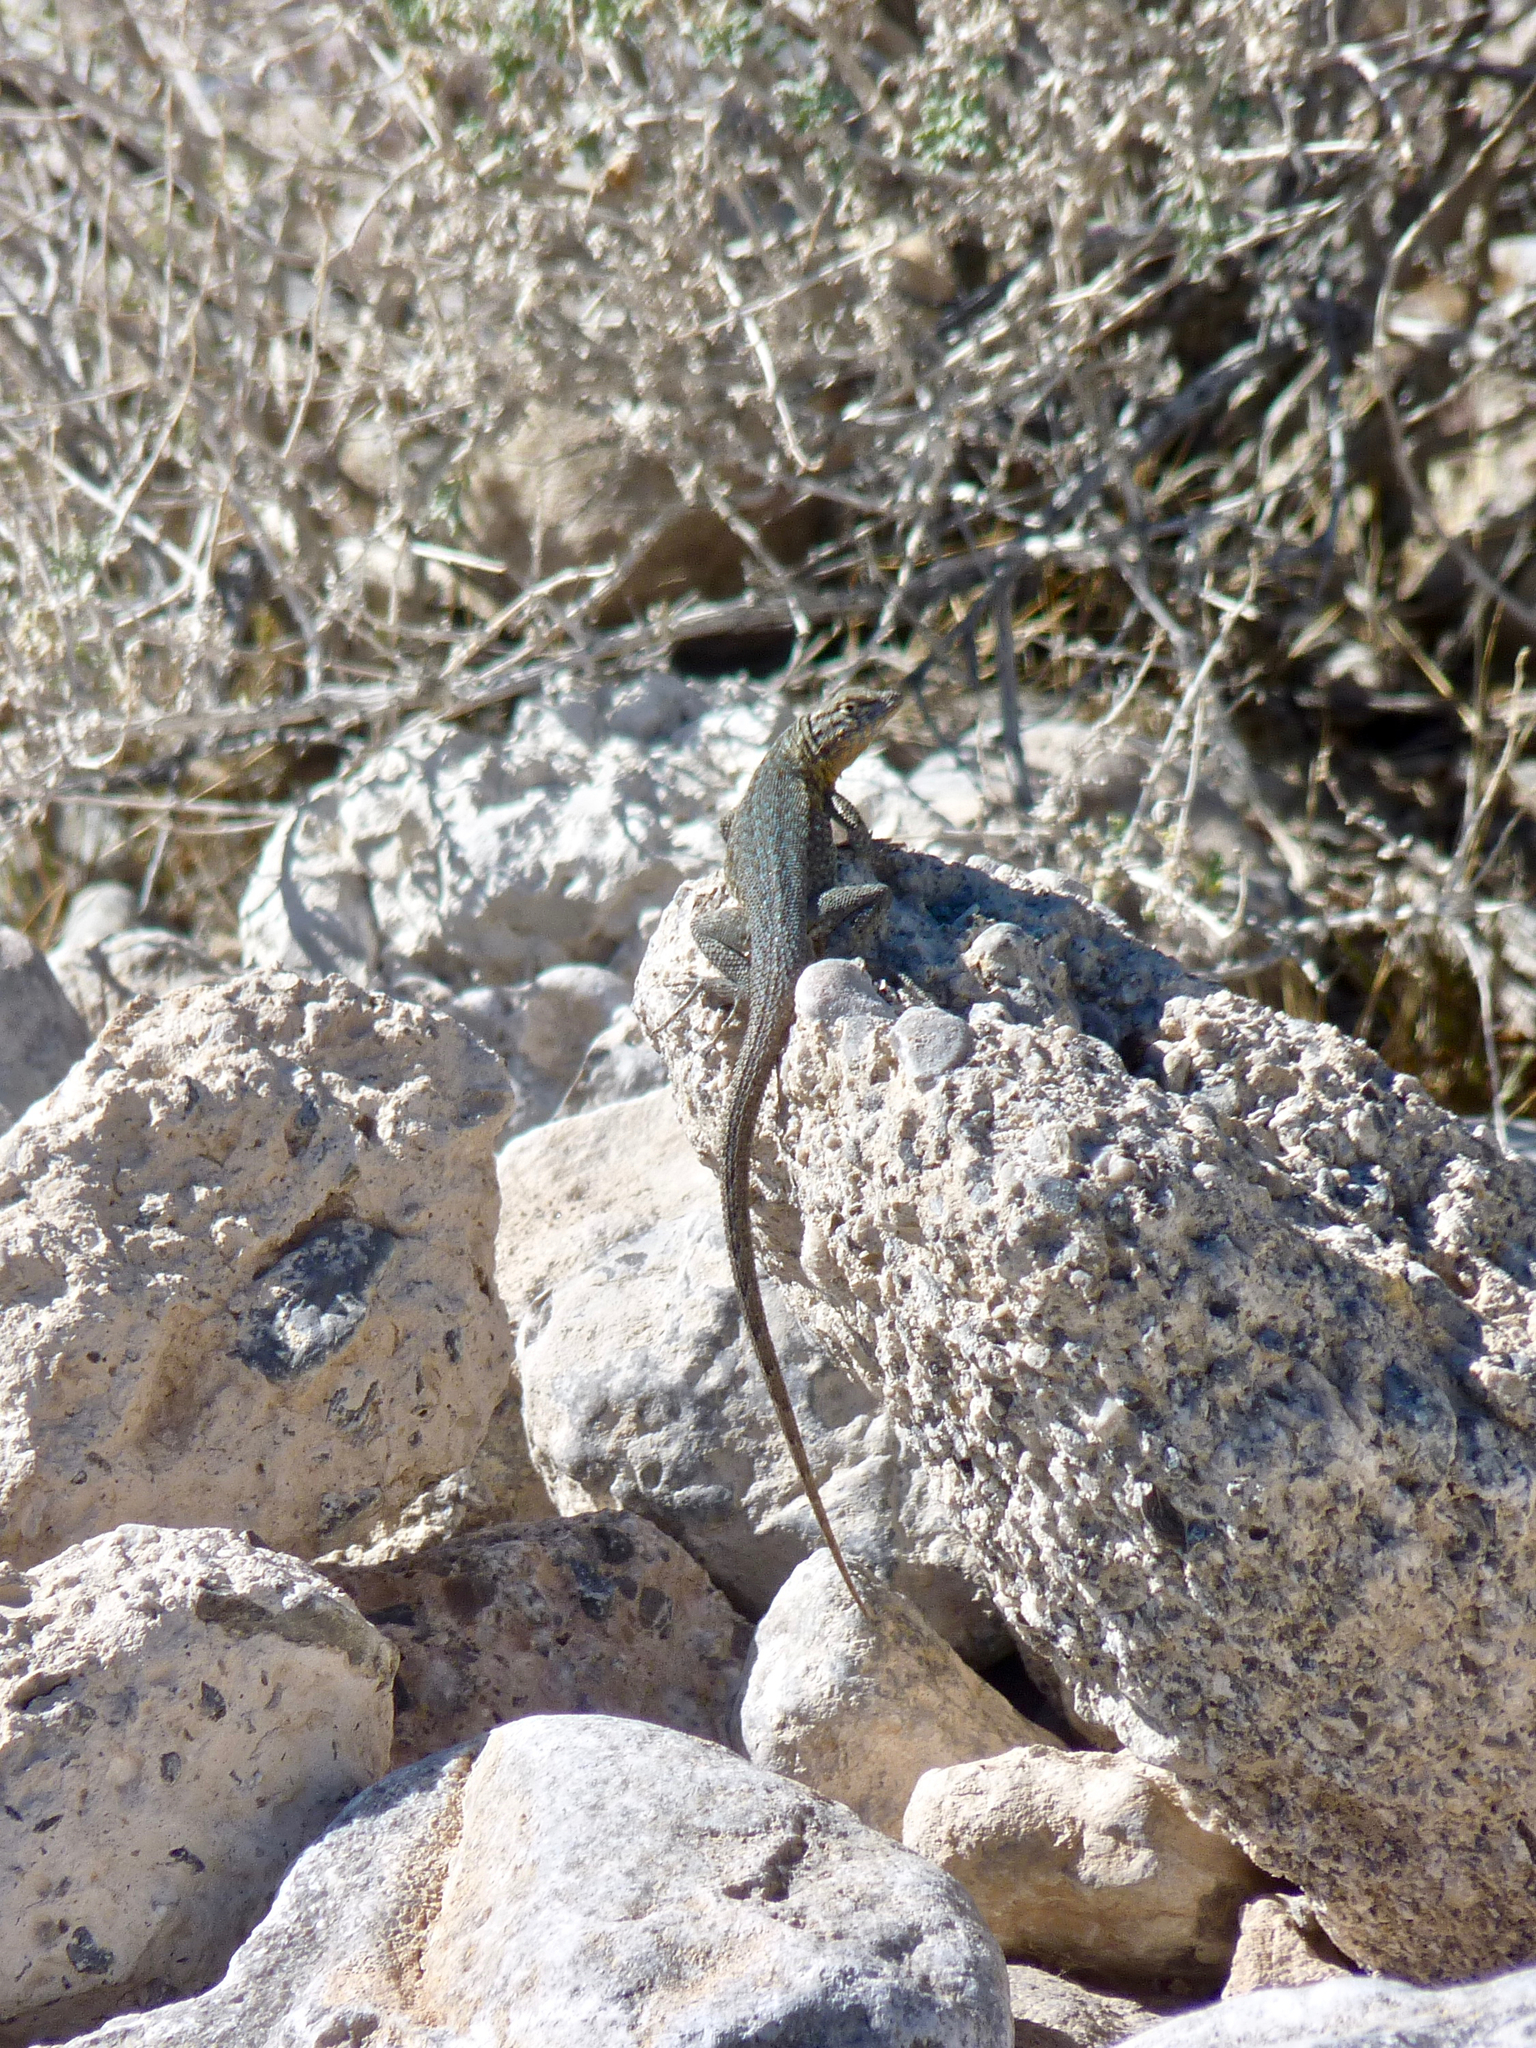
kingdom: Animalia
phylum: Chordata
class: Squamata
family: Phrynosomatidae
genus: Uta
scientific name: Uta stansburiana
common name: Side-blotched lizard
